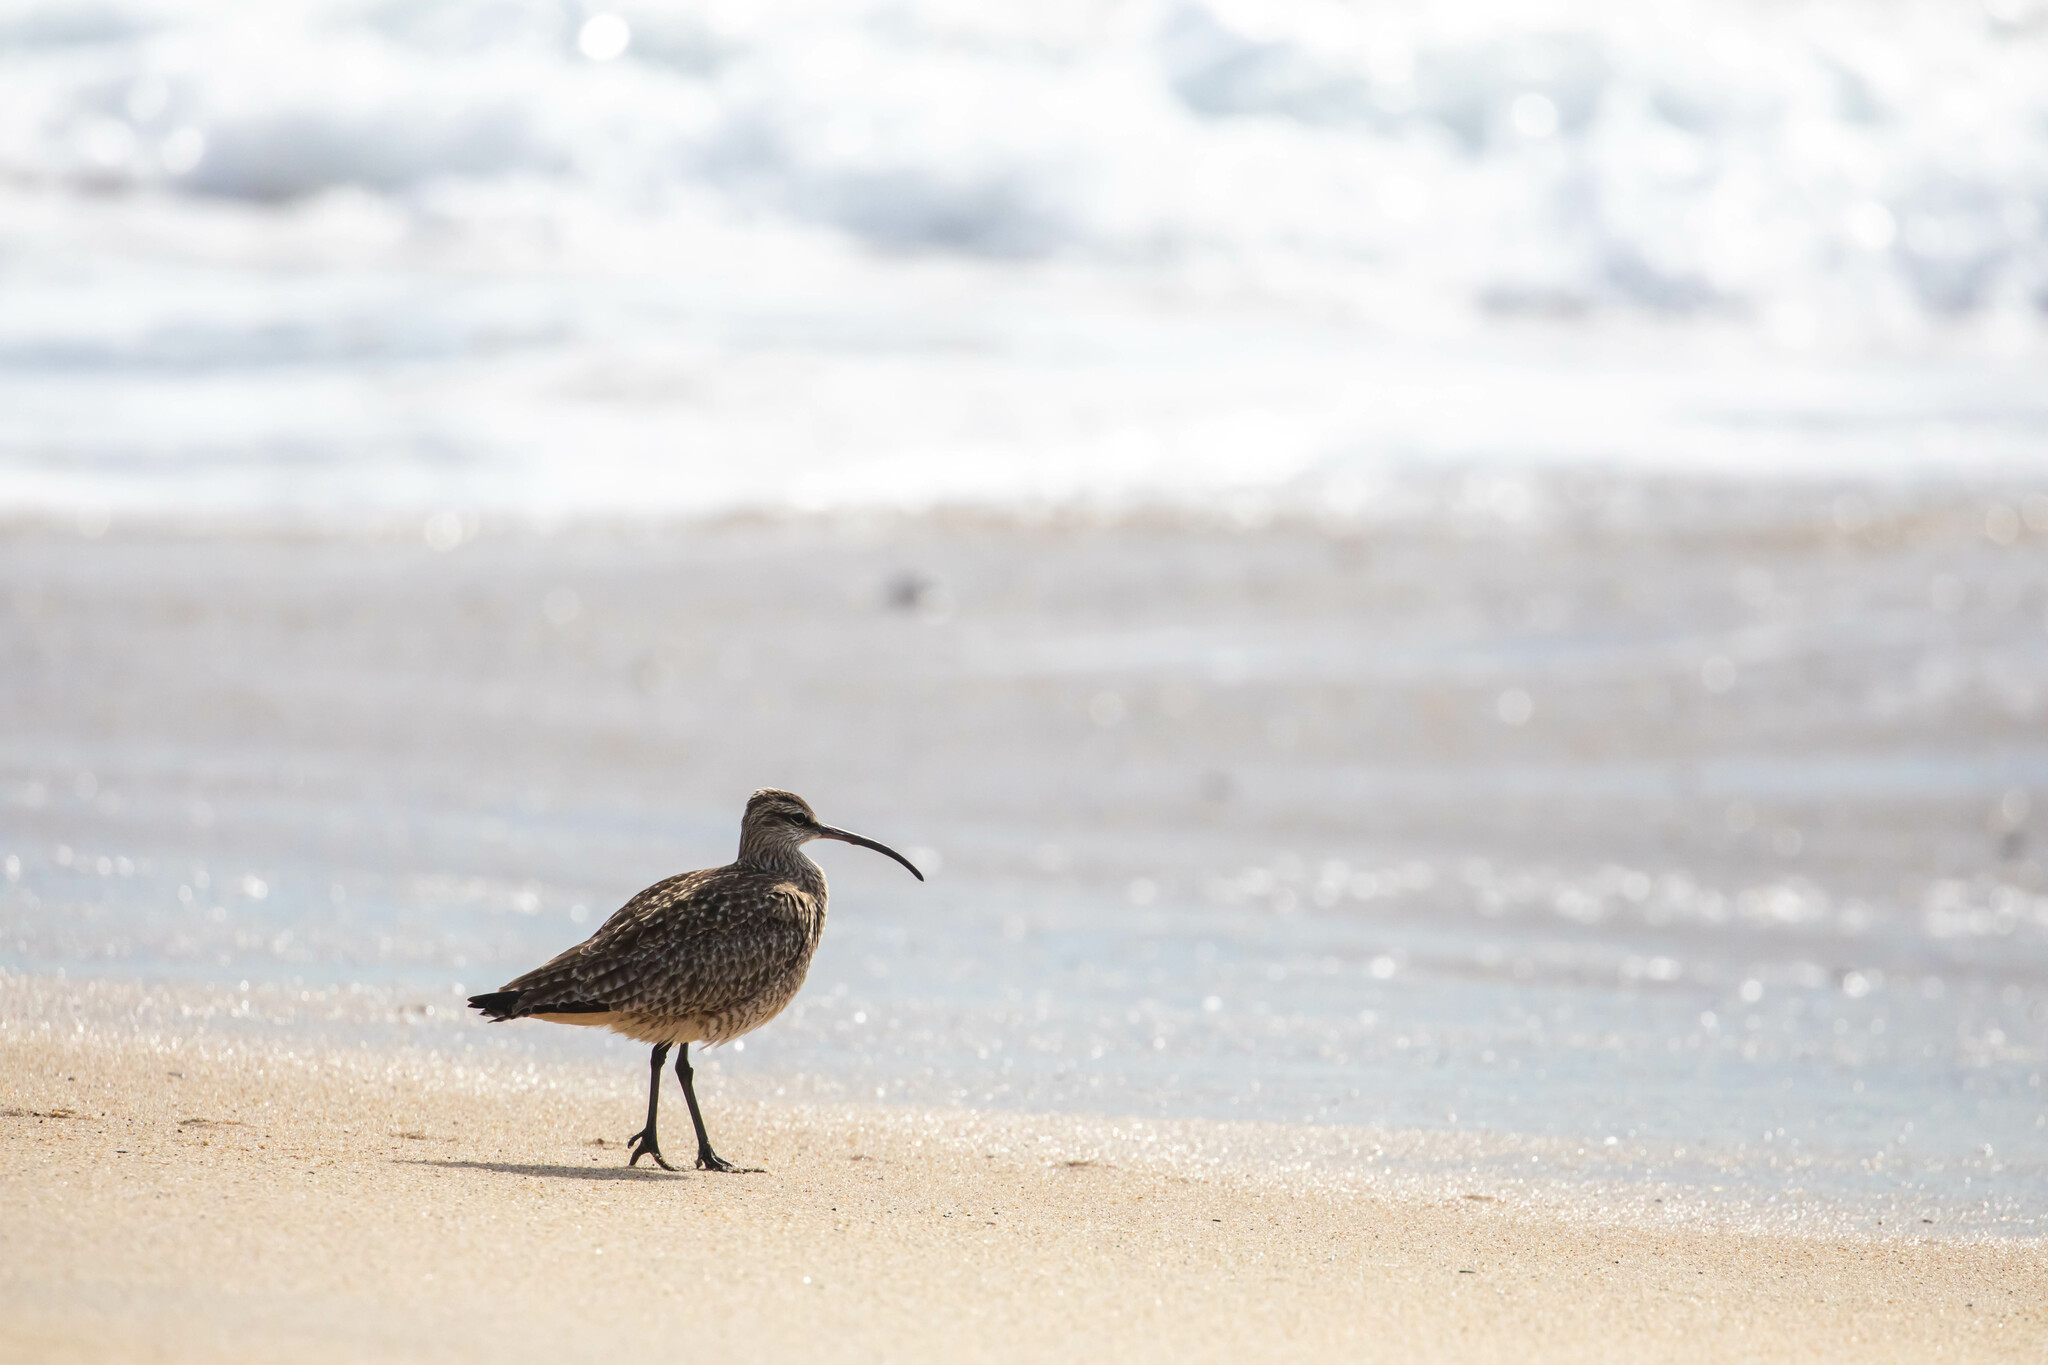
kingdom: Animalia
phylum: Chordata
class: Aves
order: Charadriiformes
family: Scolopacidae
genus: Numenius
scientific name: Numenius phaeopus
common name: Whimbrel
